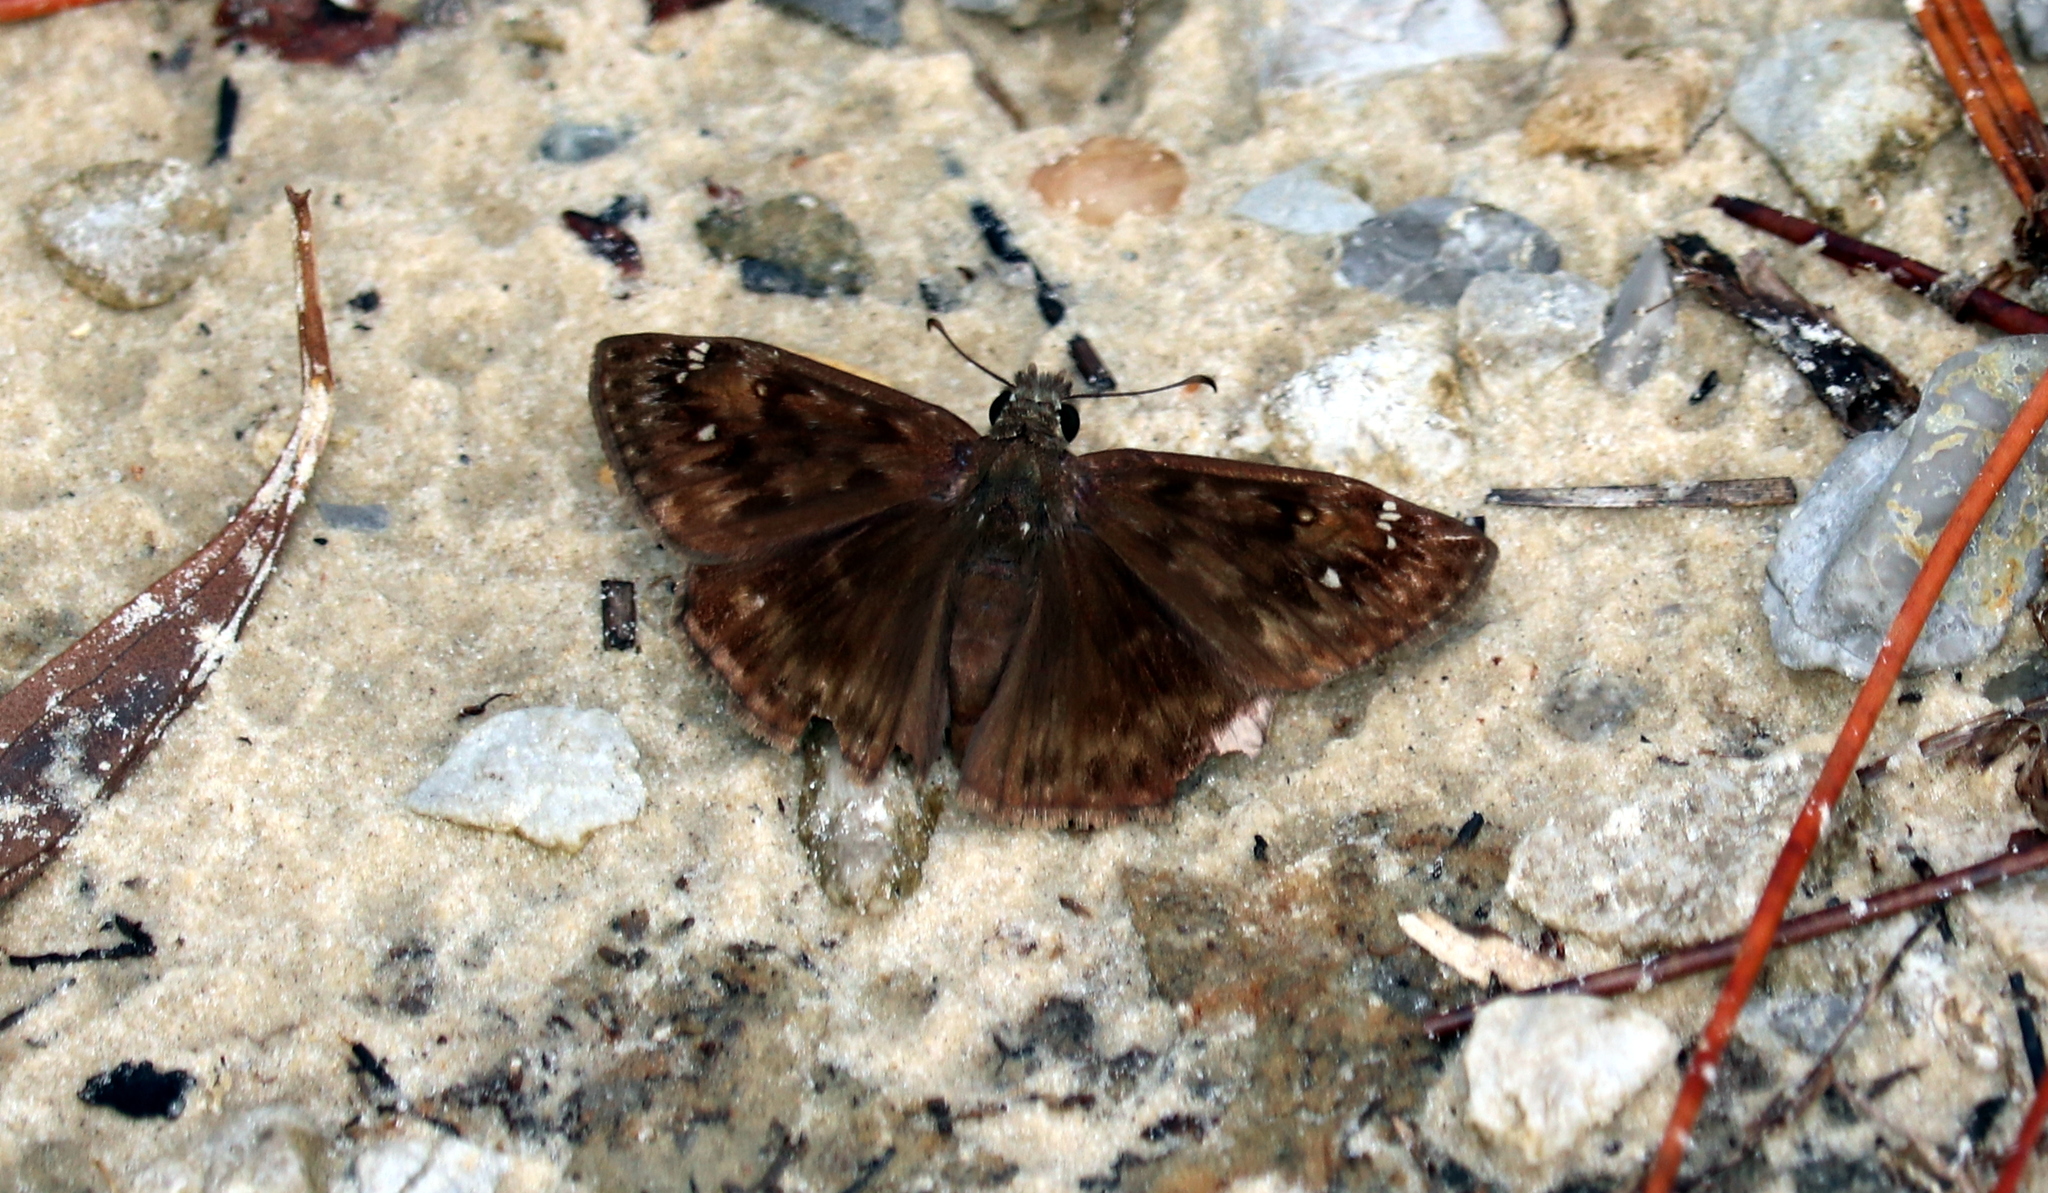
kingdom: Animalia
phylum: Arthropoda
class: Insecta
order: Lepidoptera
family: Hesperiidae
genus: Erynnis
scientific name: Erynnis horatius
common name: Horace's duskywing
